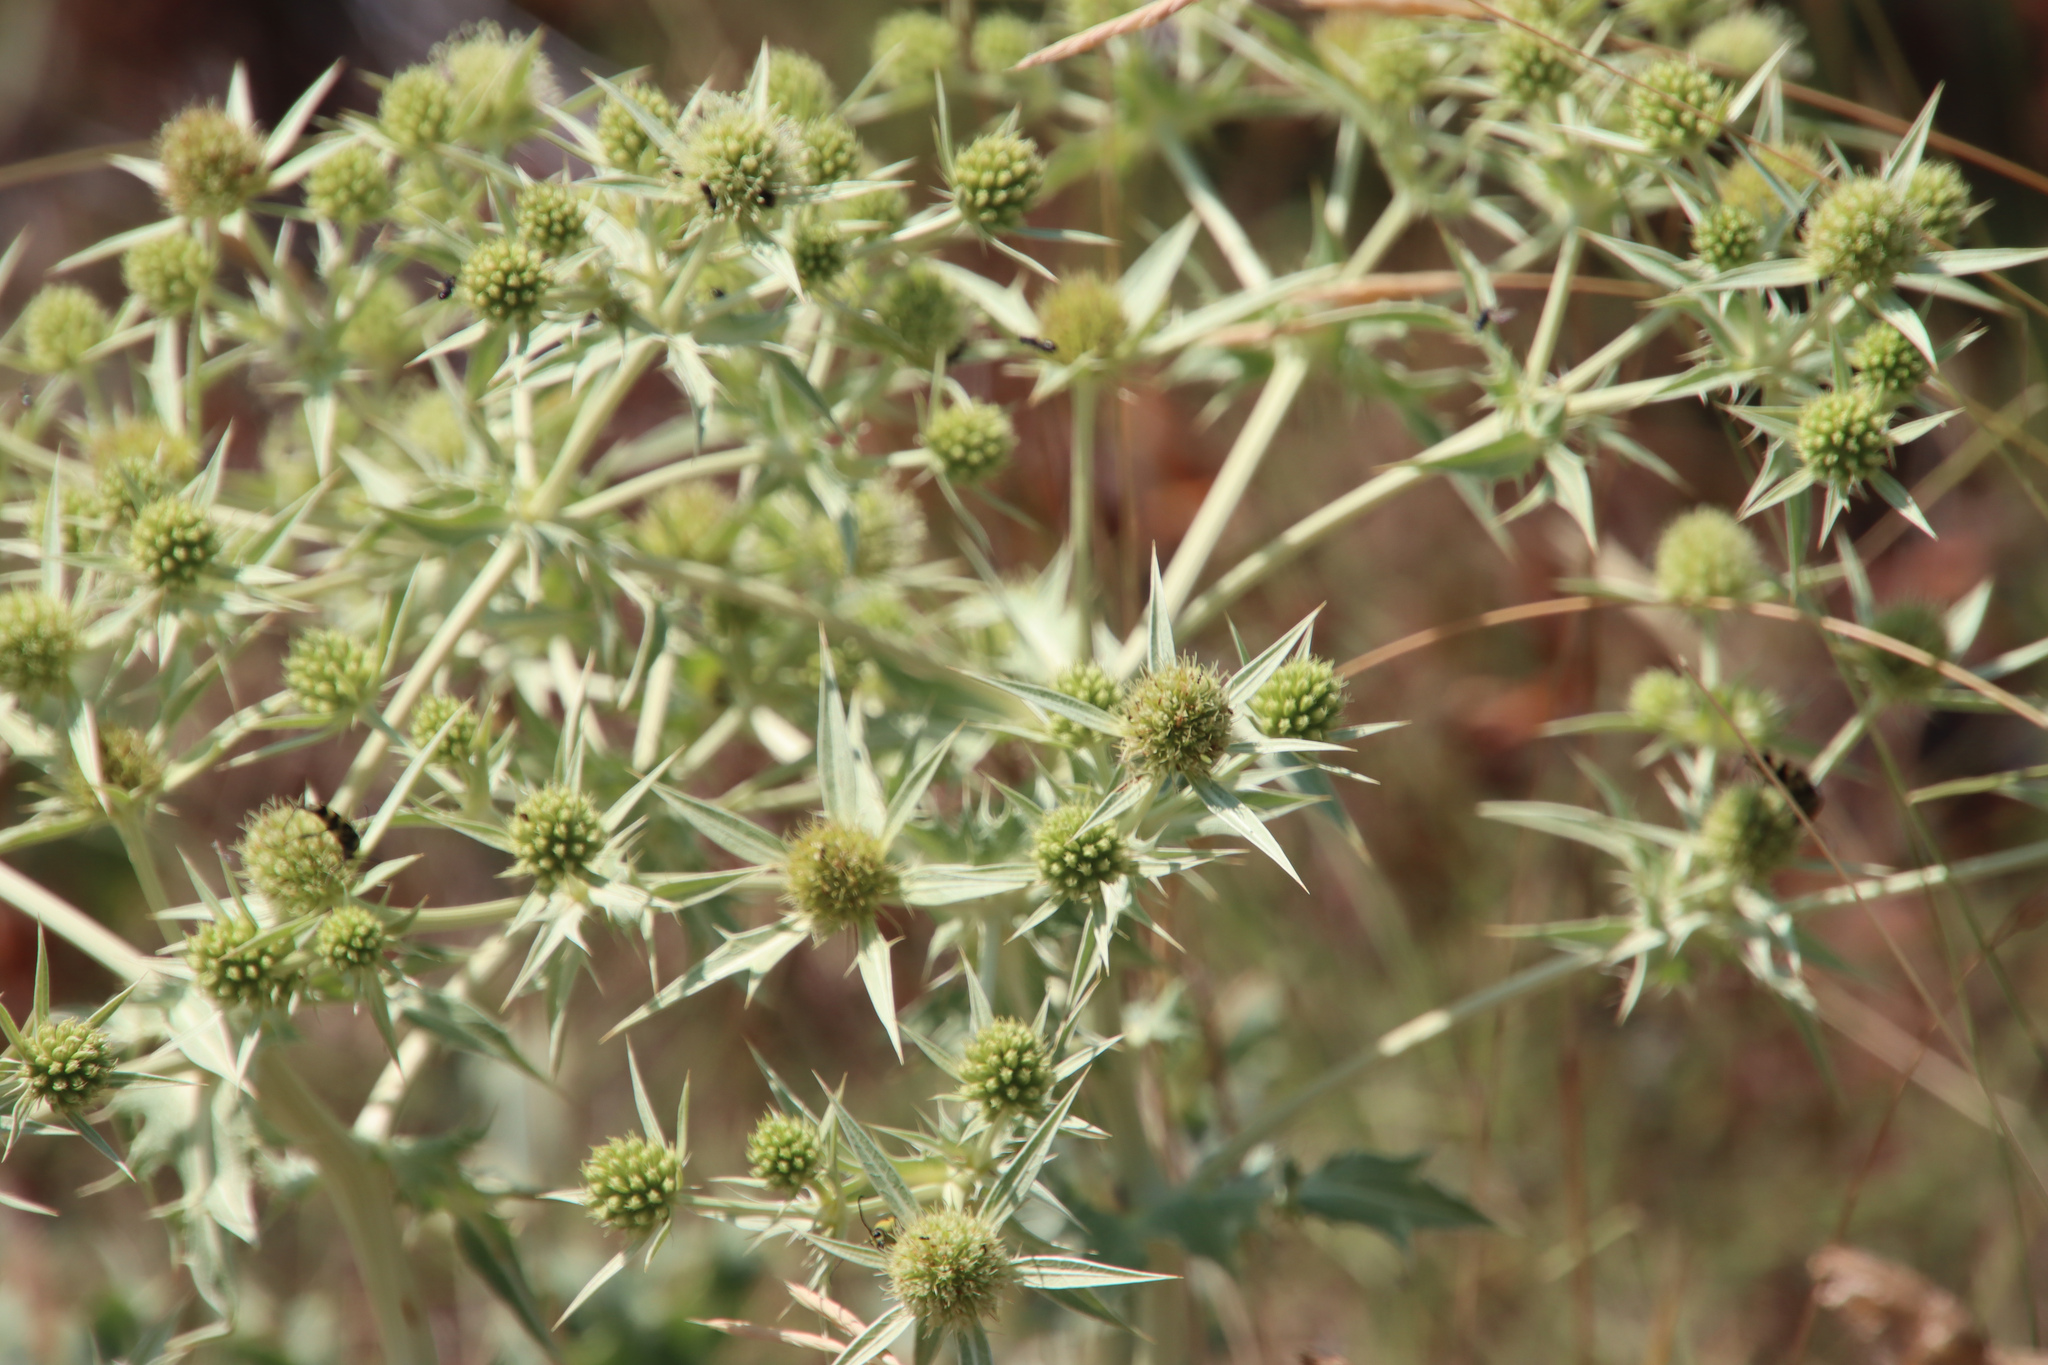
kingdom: Plantae
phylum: Tracheophyta
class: Magnoliopsida
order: Apiales
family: Apiaceae
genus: Eryngium
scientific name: Eryngium campestre
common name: Field eryngo
